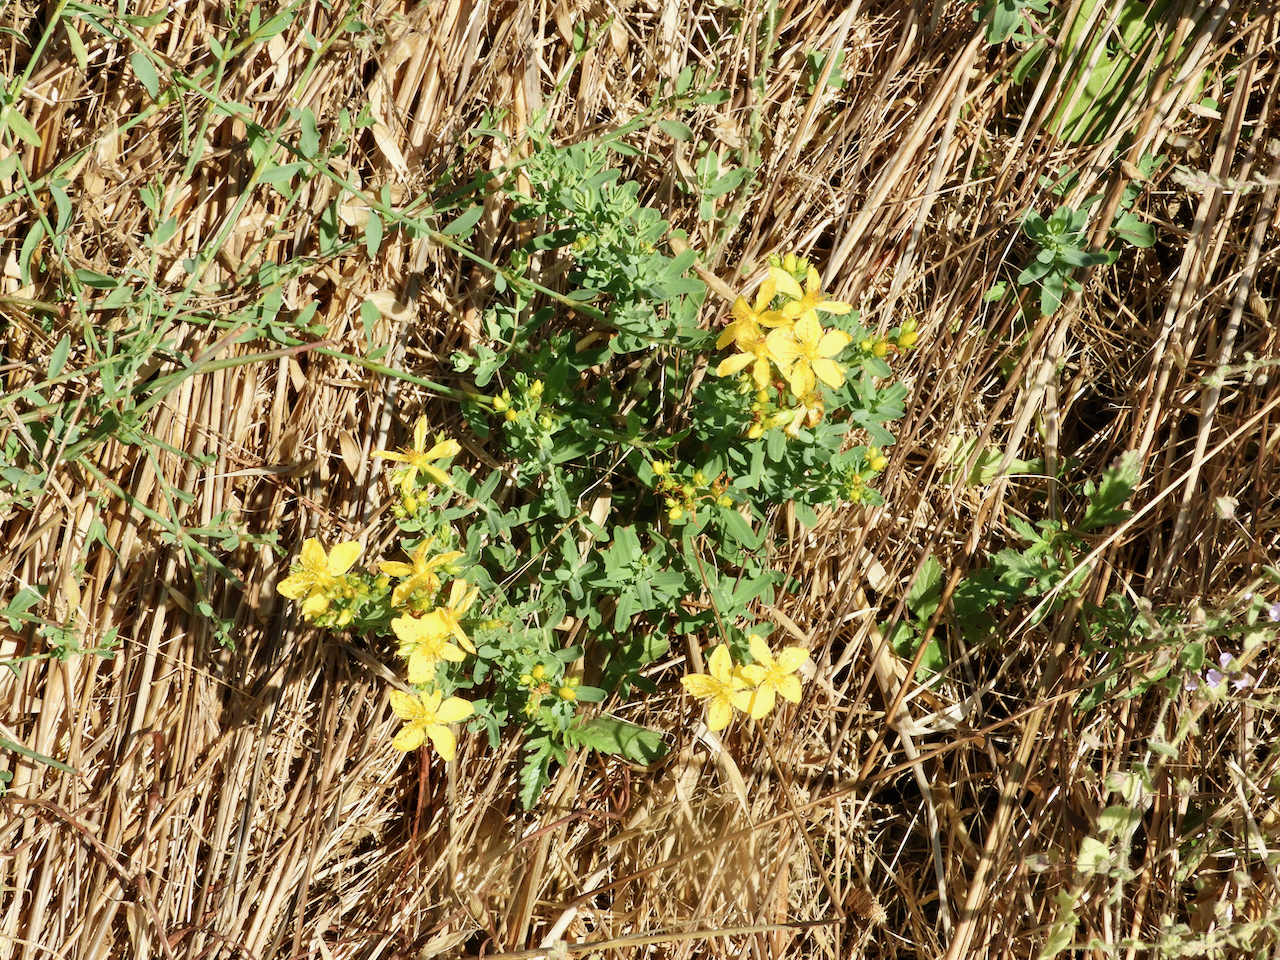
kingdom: Plantae
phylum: Tracheophyta
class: Magnoliopsida
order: Malpighiales
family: Hypericaceae
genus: Hypericum
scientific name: Hypericum perforatum
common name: Common st. johnswort
